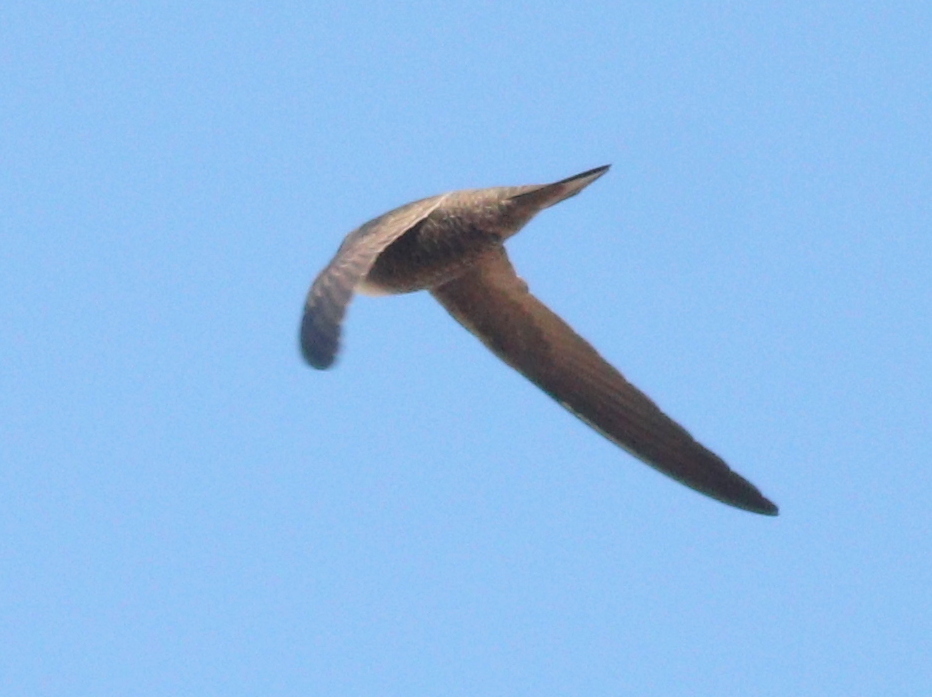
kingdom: Animalia
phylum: Chordata
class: Aves
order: Apodiformes
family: Apodidae
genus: Apus
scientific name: Apus pallidus
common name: Pallid swift
